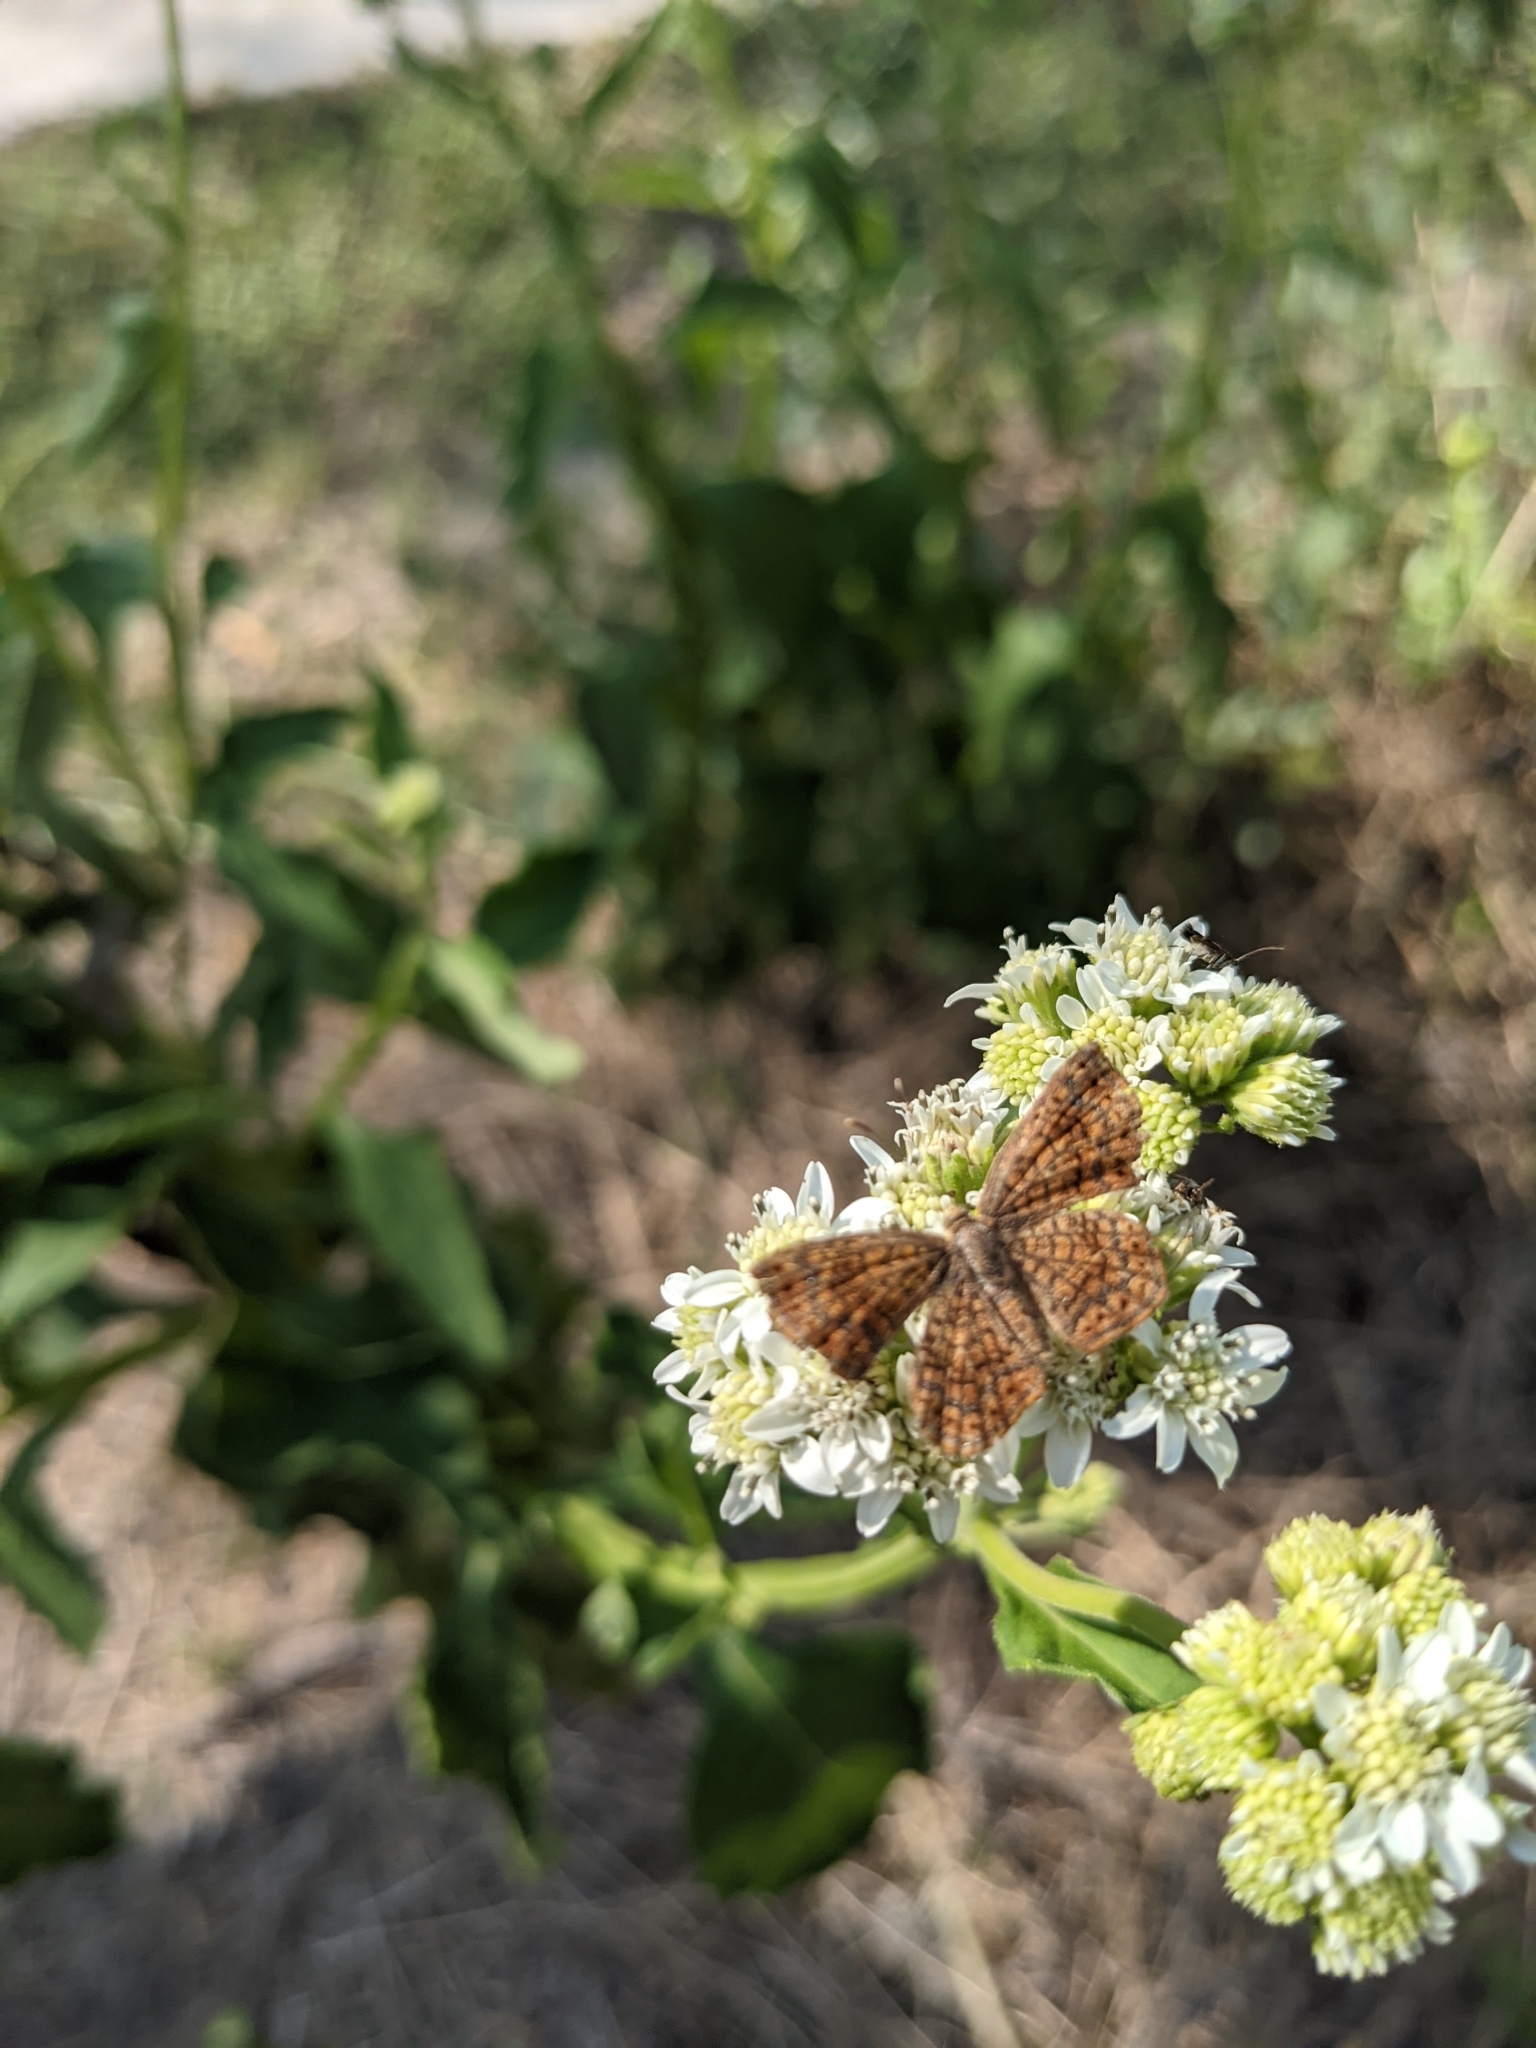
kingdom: Animalia
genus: Calephelis
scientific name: Calephelis perditalis
